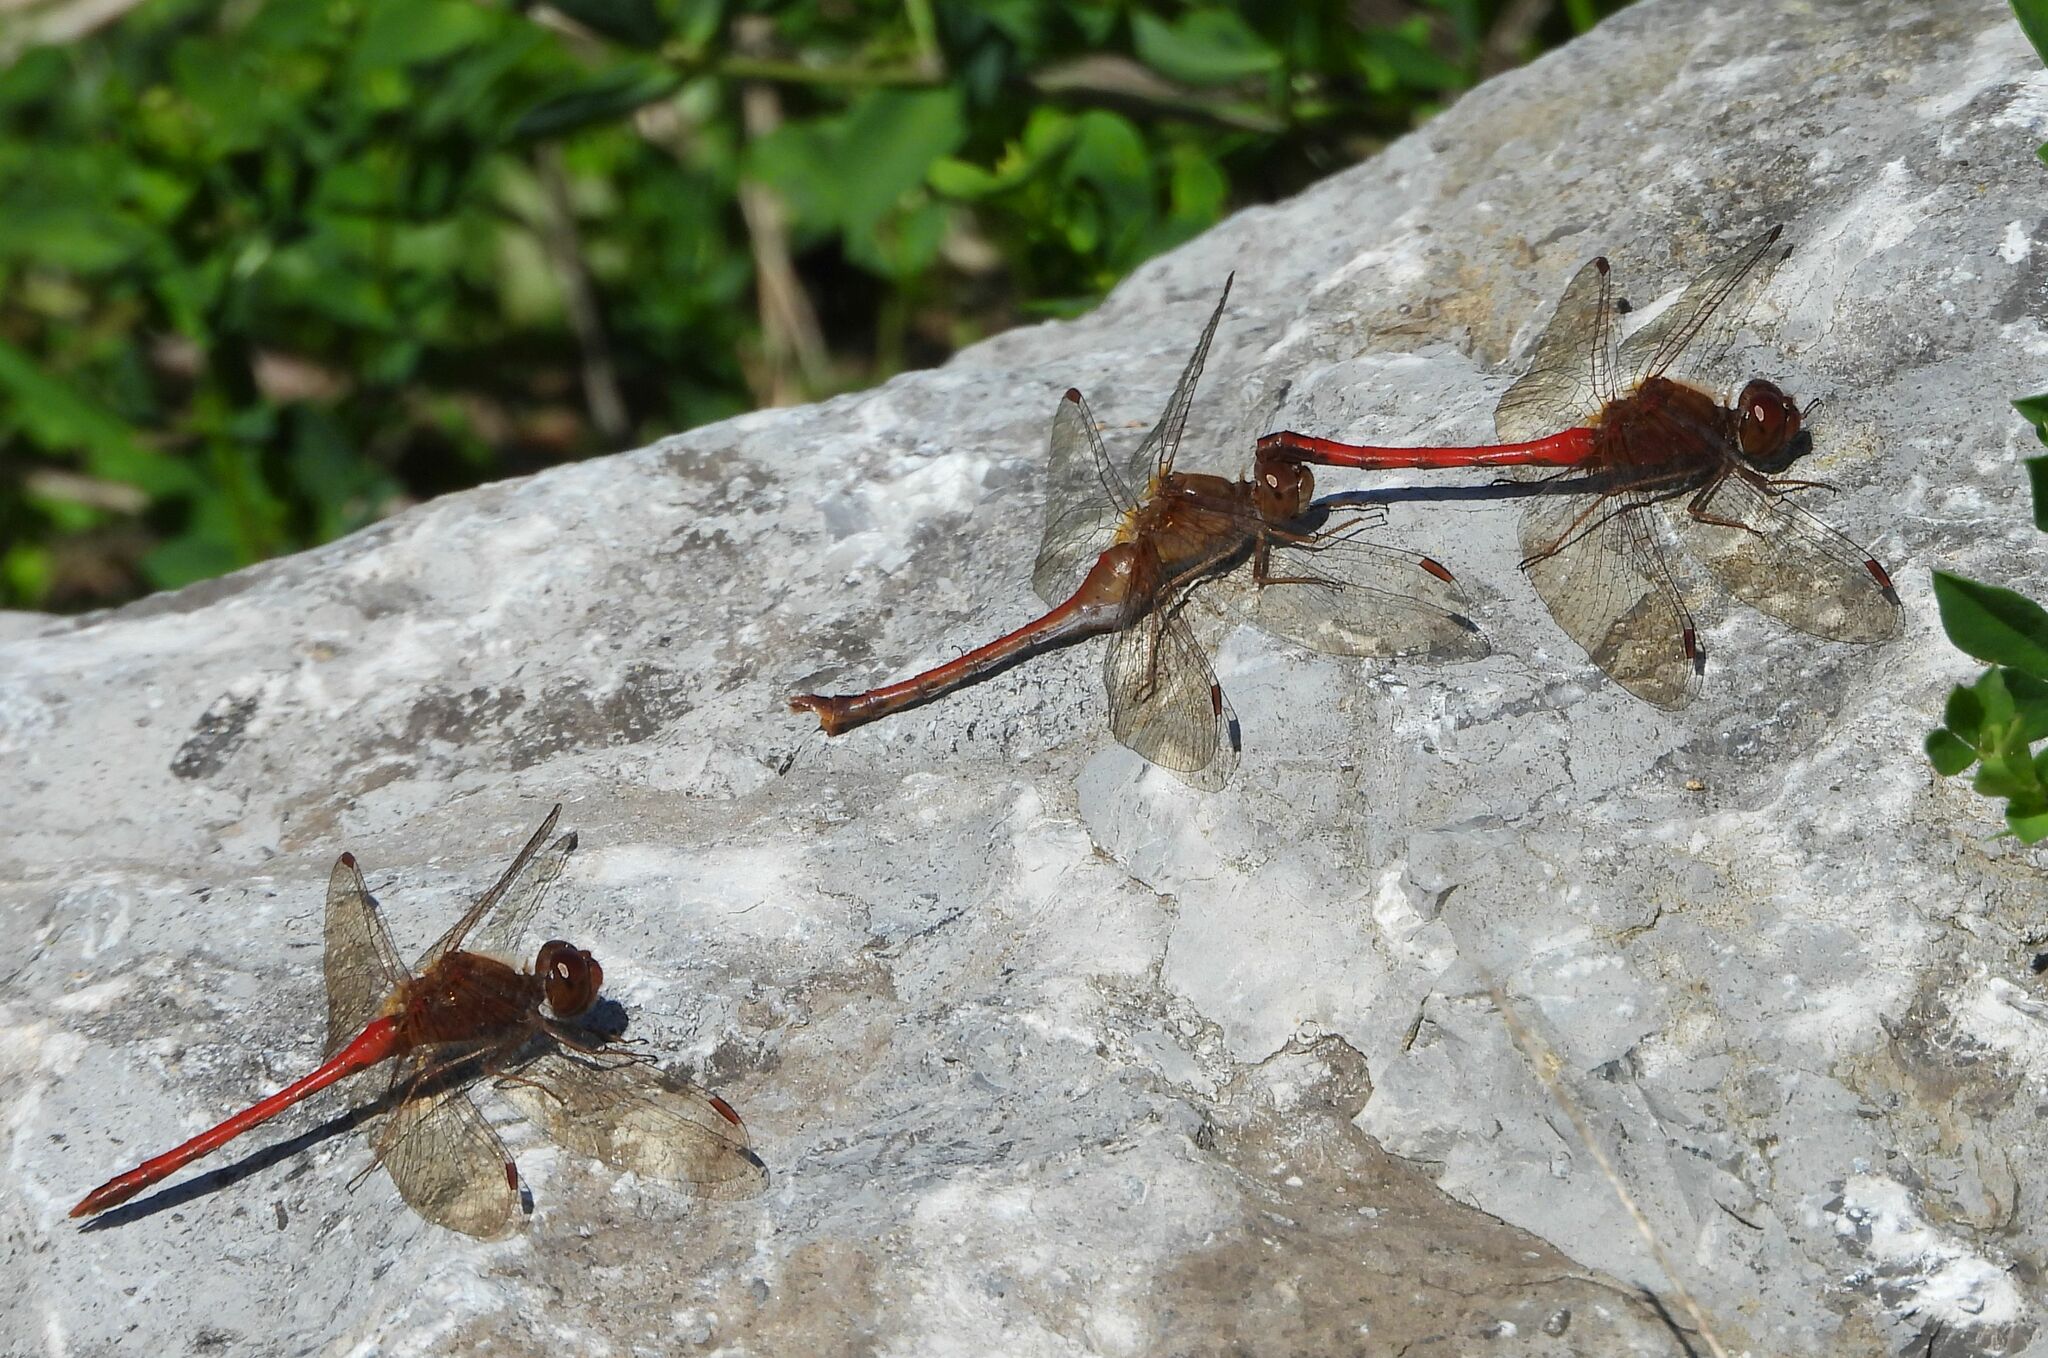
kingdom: Animalia
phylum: Arthropoda
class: Insecta
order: Odonata
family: Libellulidae
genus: Sympetrum
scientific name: Sympetrum vicinum
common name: Autumn meadowhawk
